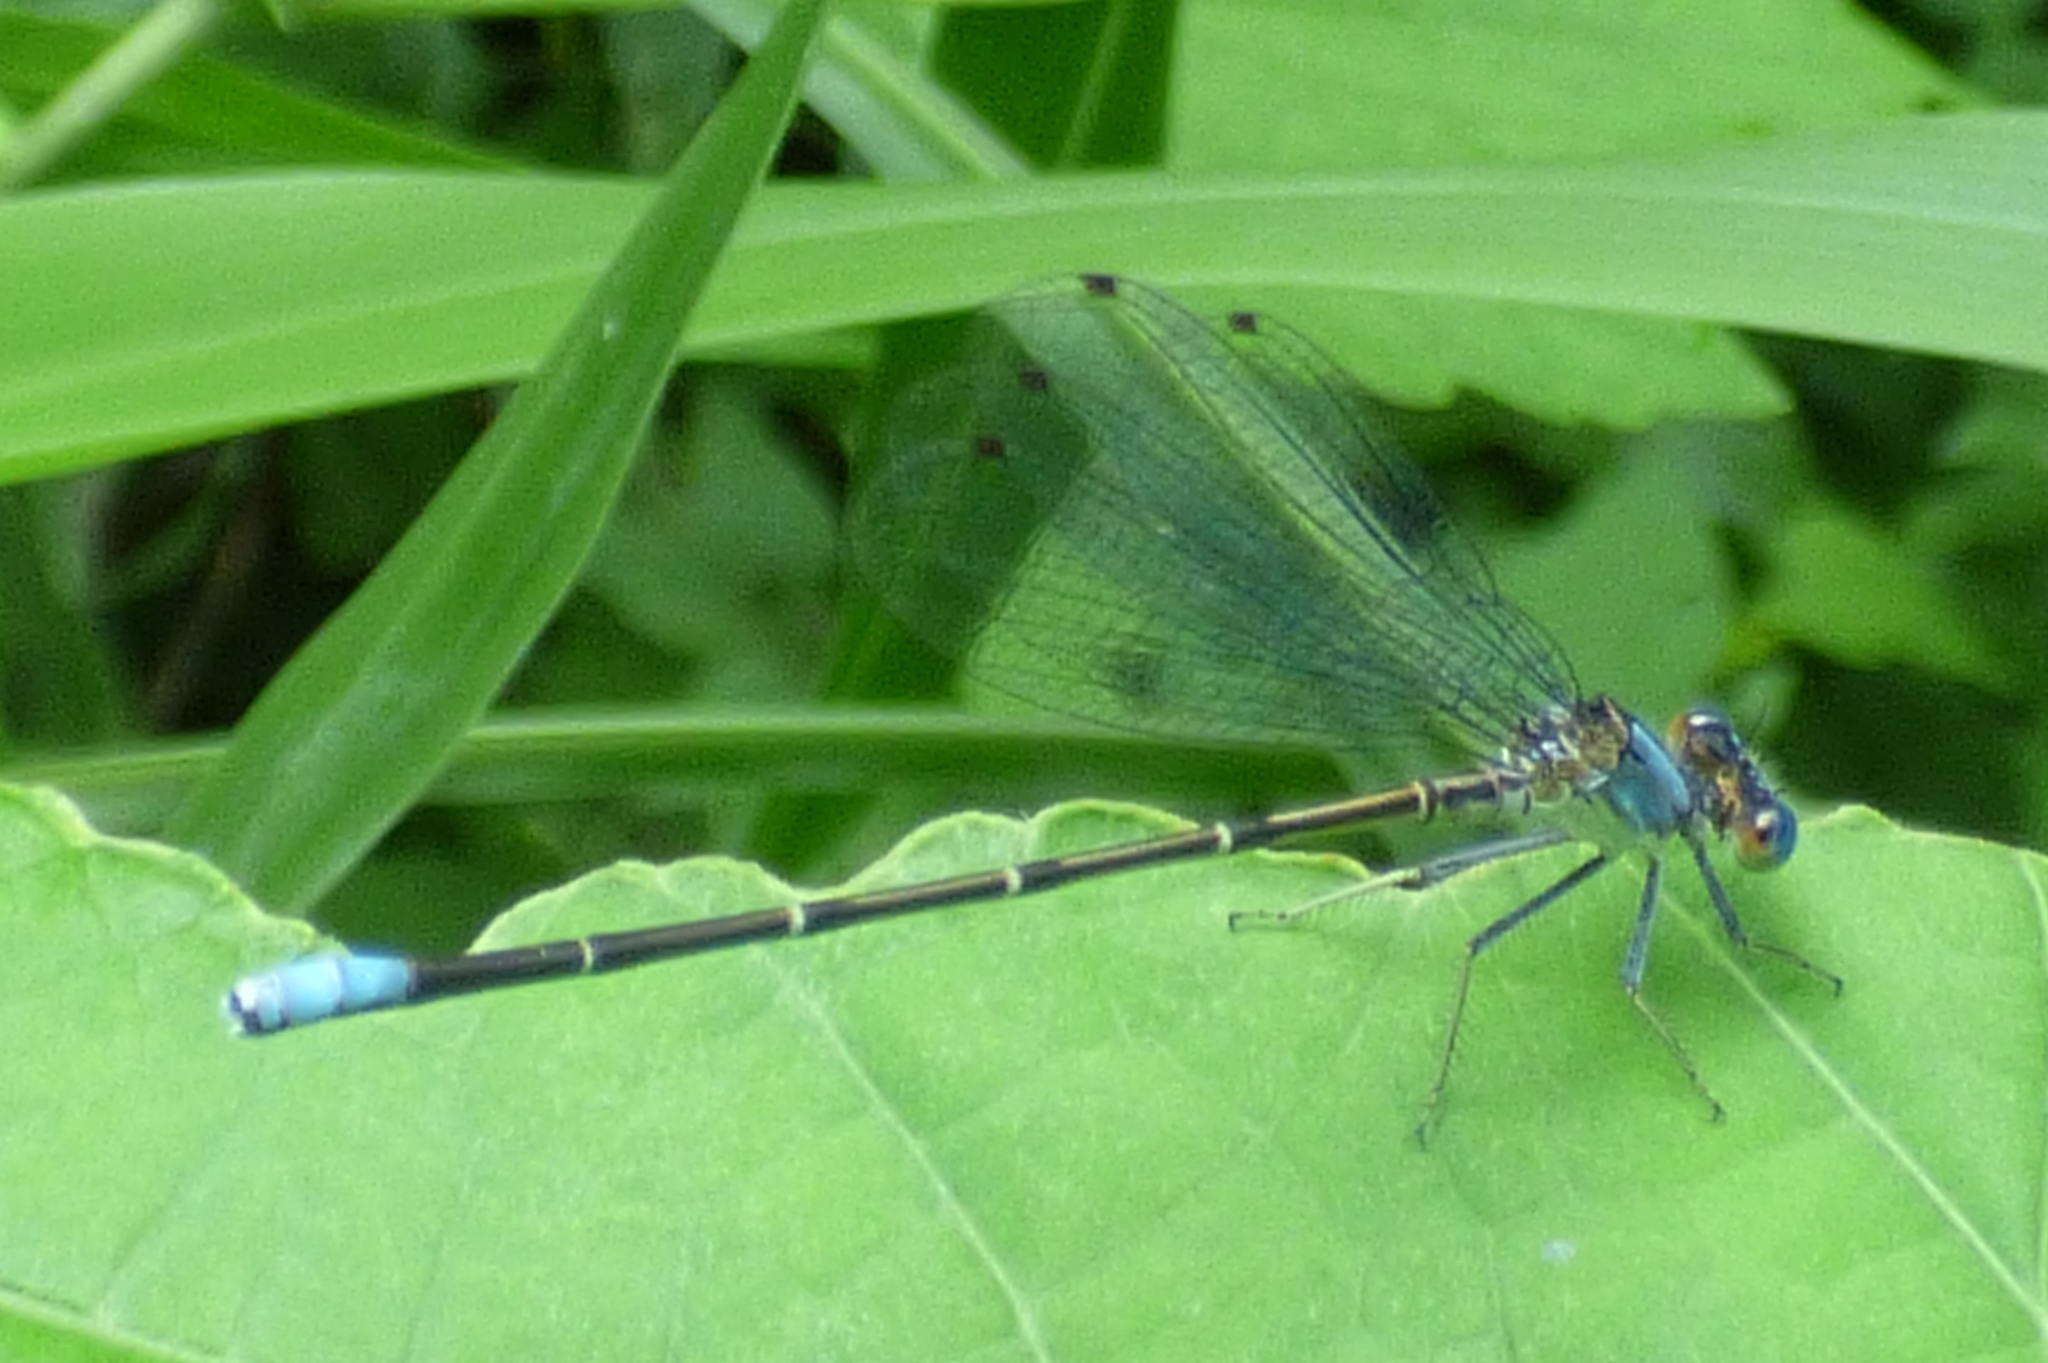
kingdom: Animalia
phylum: Arthropoda
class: Insecta
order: Odonata
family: Coenagrionidae
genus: Argia
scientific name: Argia apicalis
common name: Blue-fronted dancer
